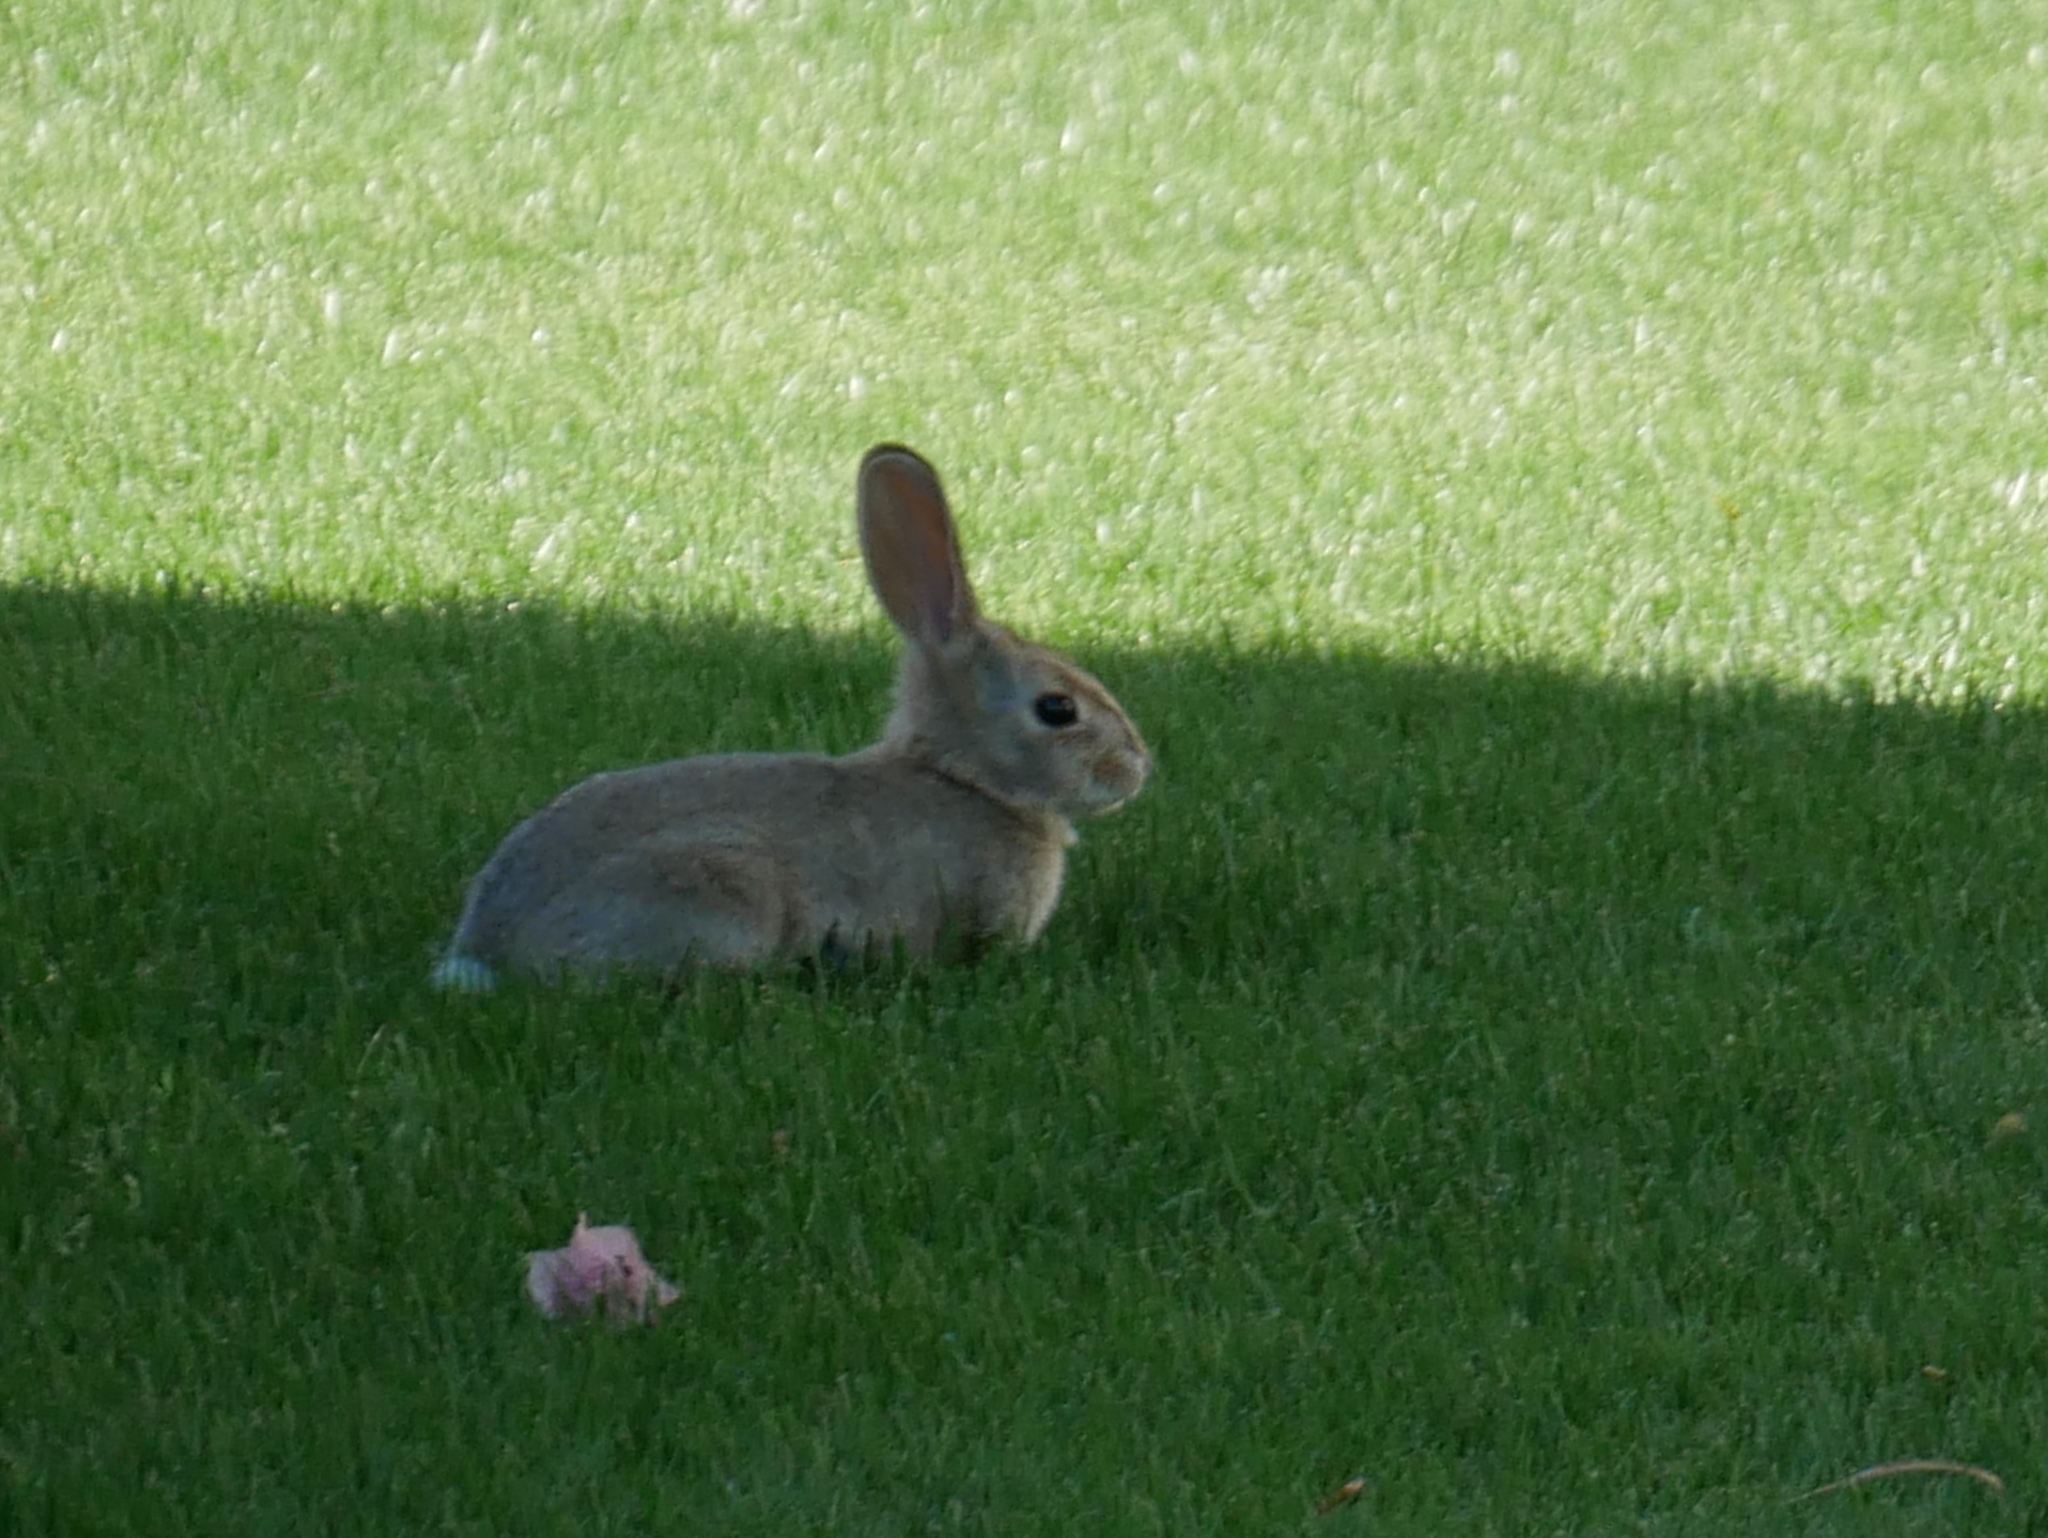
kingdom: Animalia
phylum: Chordata
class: Mammalia
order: Lagomorpha
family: Leporidae
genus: Sylvilagus
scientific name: Sylvilagus audubonii
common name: Desert cottontail
